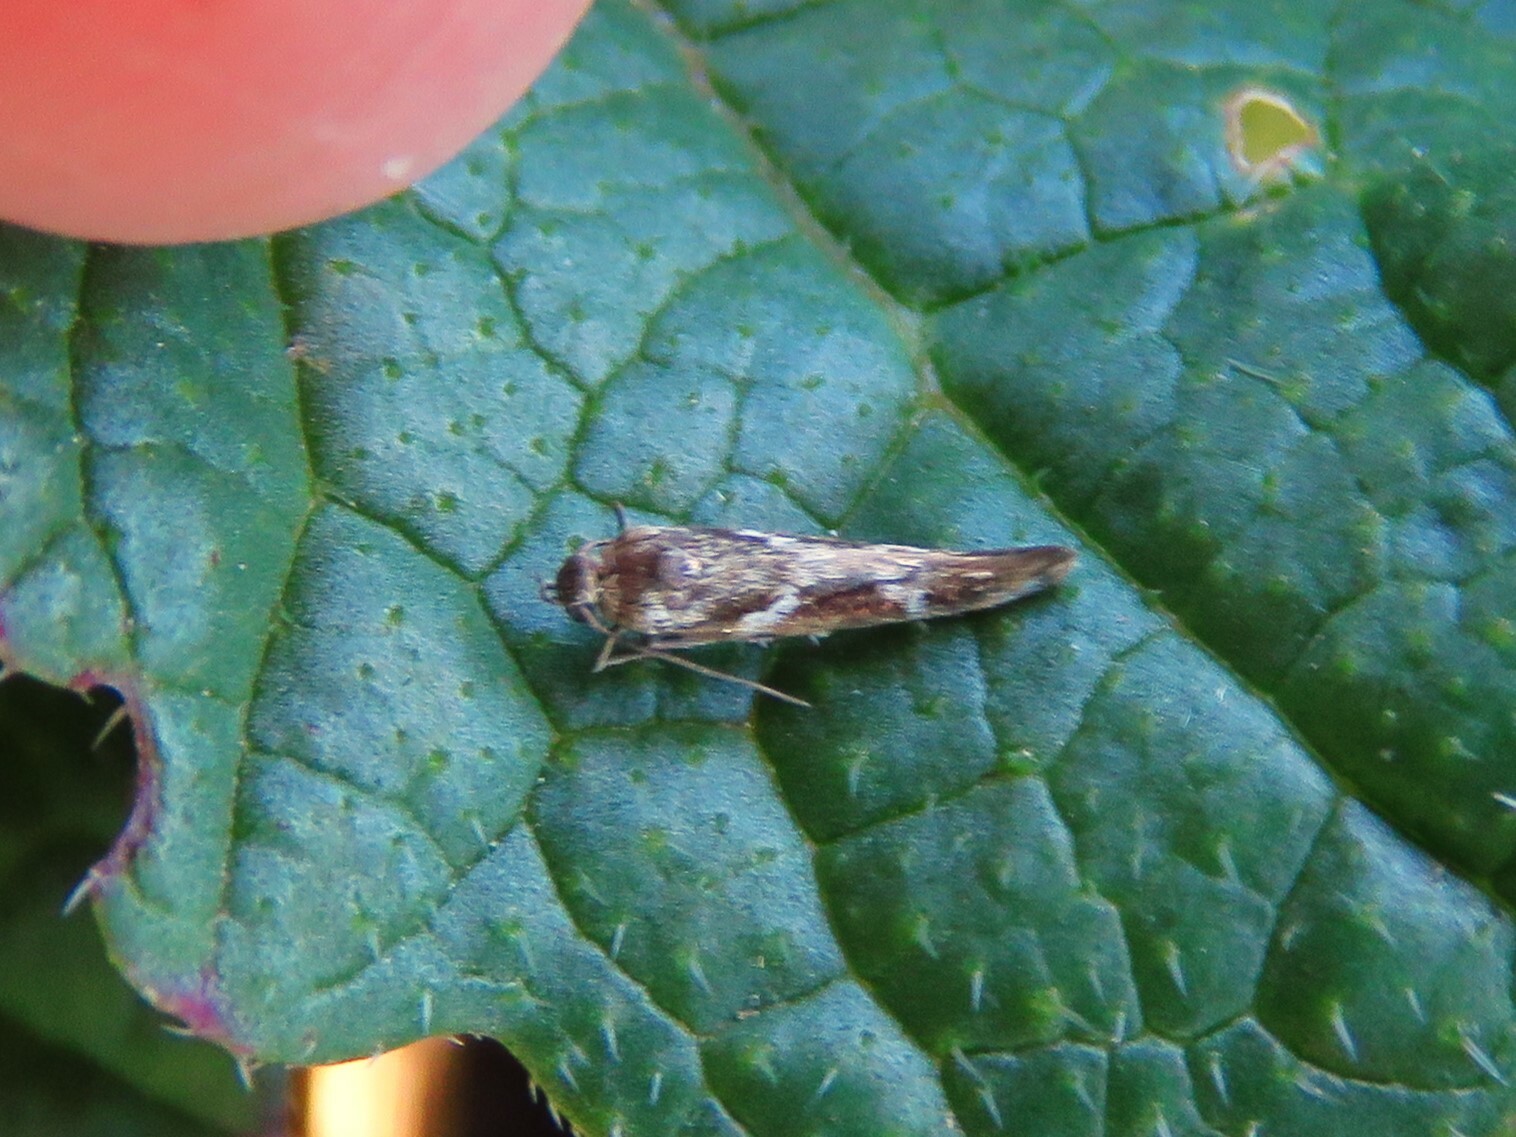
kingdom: Animalia
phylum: Arthropoda
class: Insecta
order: Lepidoptera
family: Scythrididae
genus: Scythris
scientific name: Scythris trivinctella
